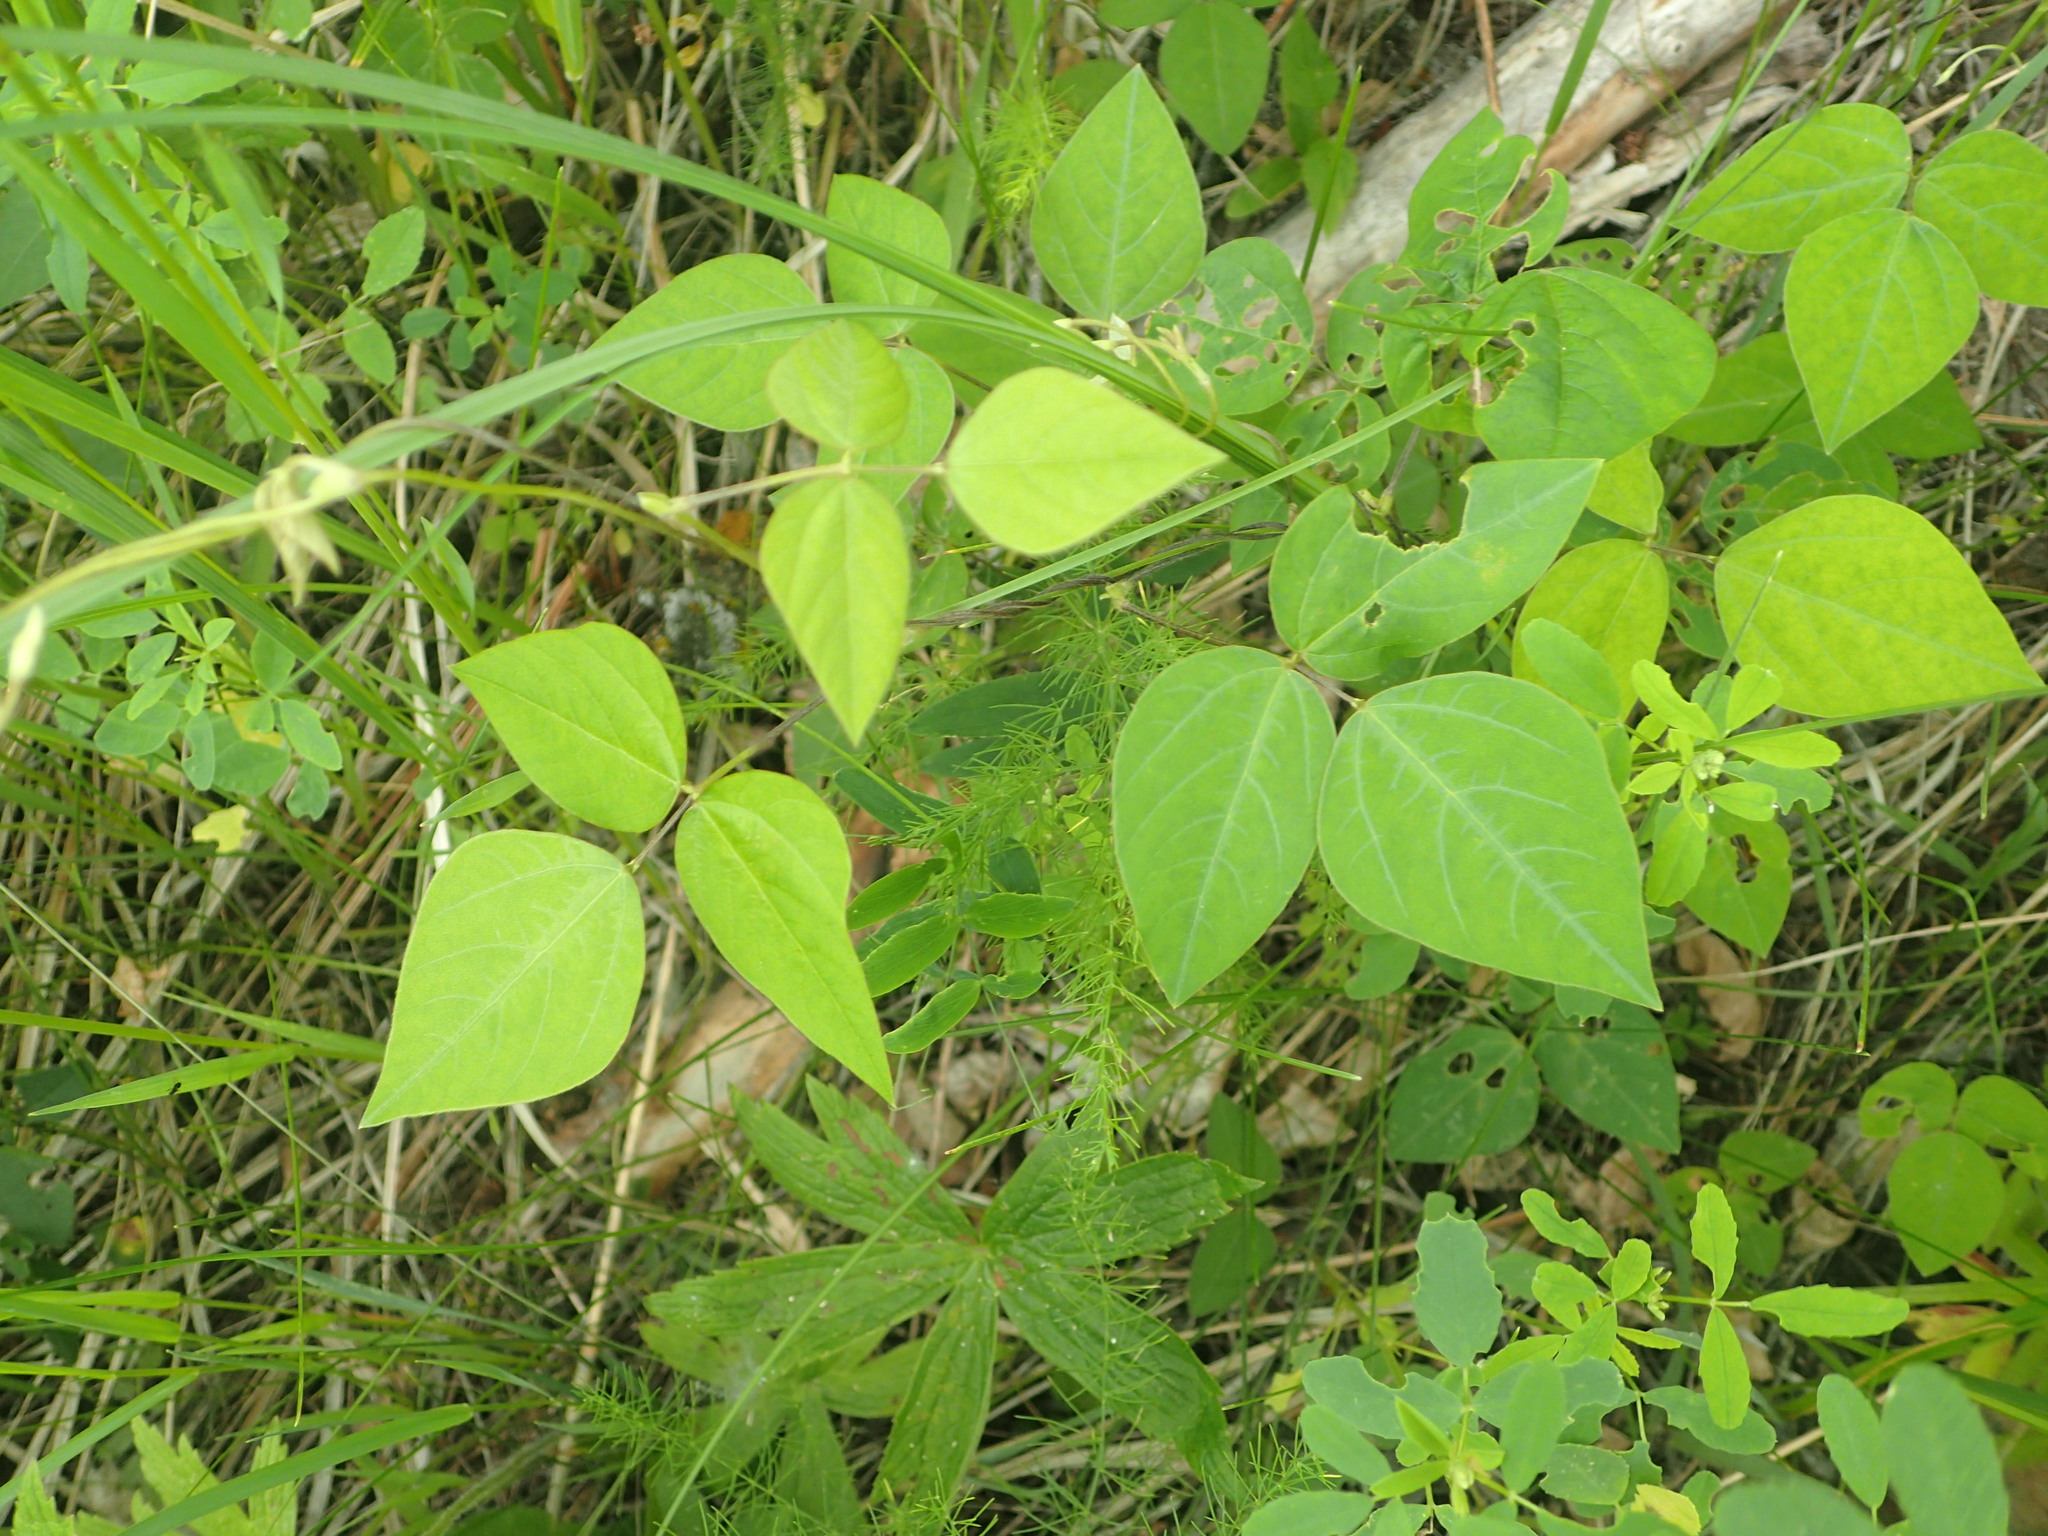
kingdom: Plantae
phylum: Tracheophyta
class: Magnoliopsida
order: Fabales
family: Fabaceae
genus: Amphicarpaea
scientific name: Amphicarpaea bracteata
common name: American hog peanut
